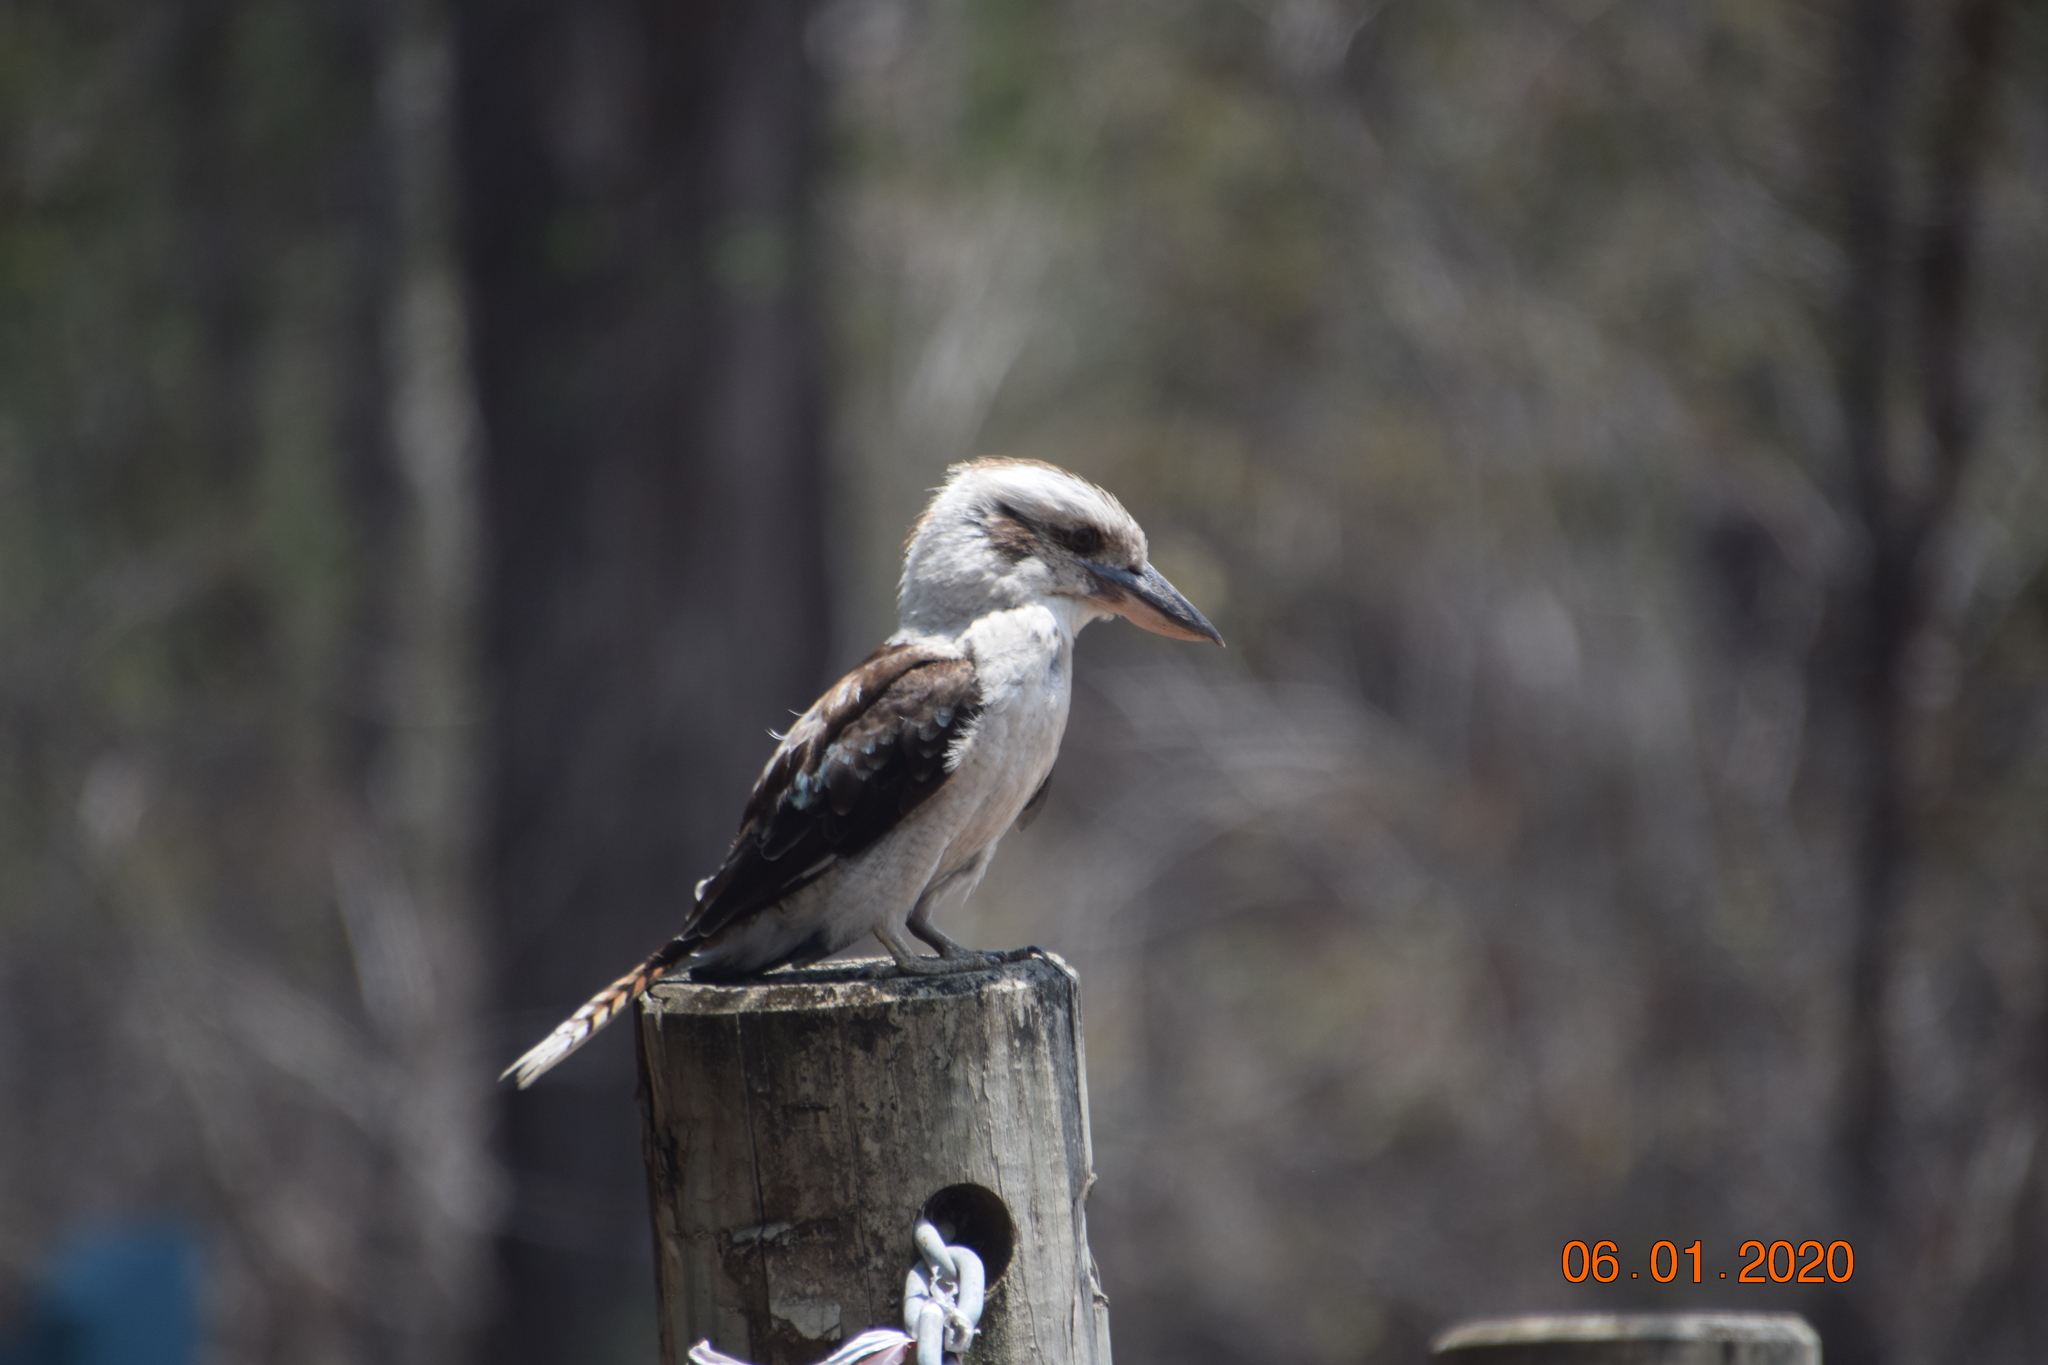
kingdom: Animalia
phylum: Chordata
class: Aves
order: Coraciiformes
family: Alcedinidae
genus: Dacelo
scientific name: Dacelo novaeguineae
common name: Laughing kookaburra
